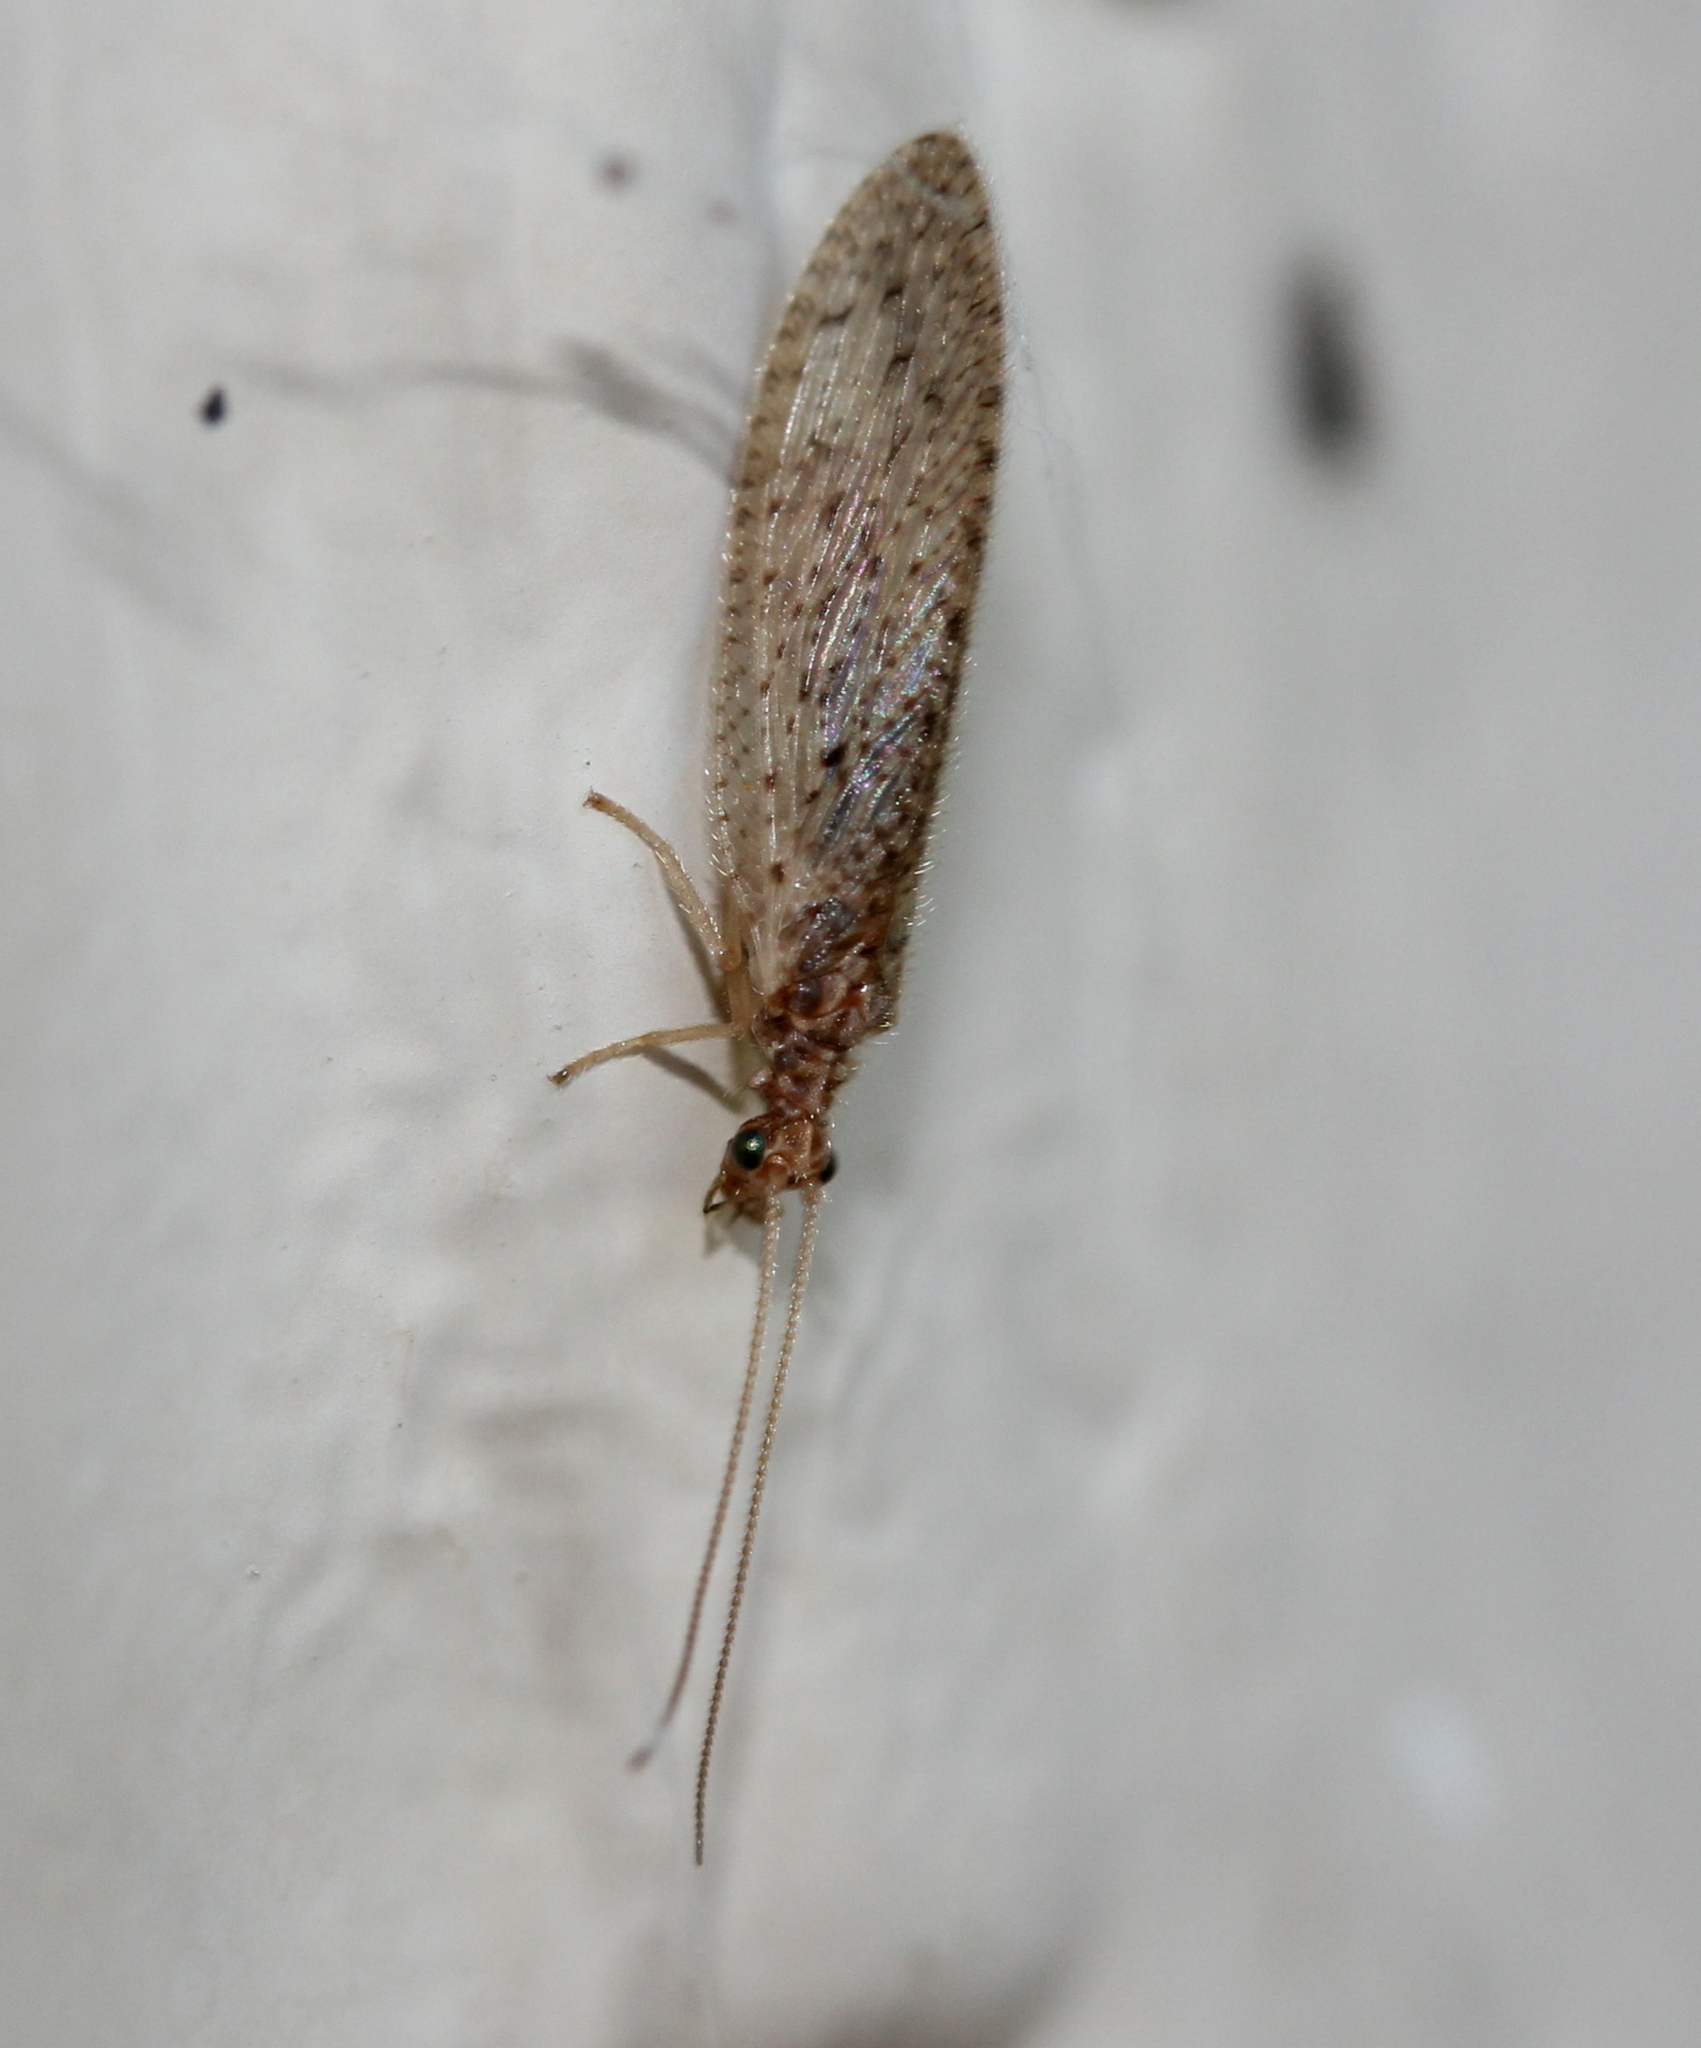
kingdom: Animalia
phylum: Arthropoda
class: Insecta
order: Neuroptera
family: Hemerobiidae
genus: Micromus
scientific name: Micromus posticus
